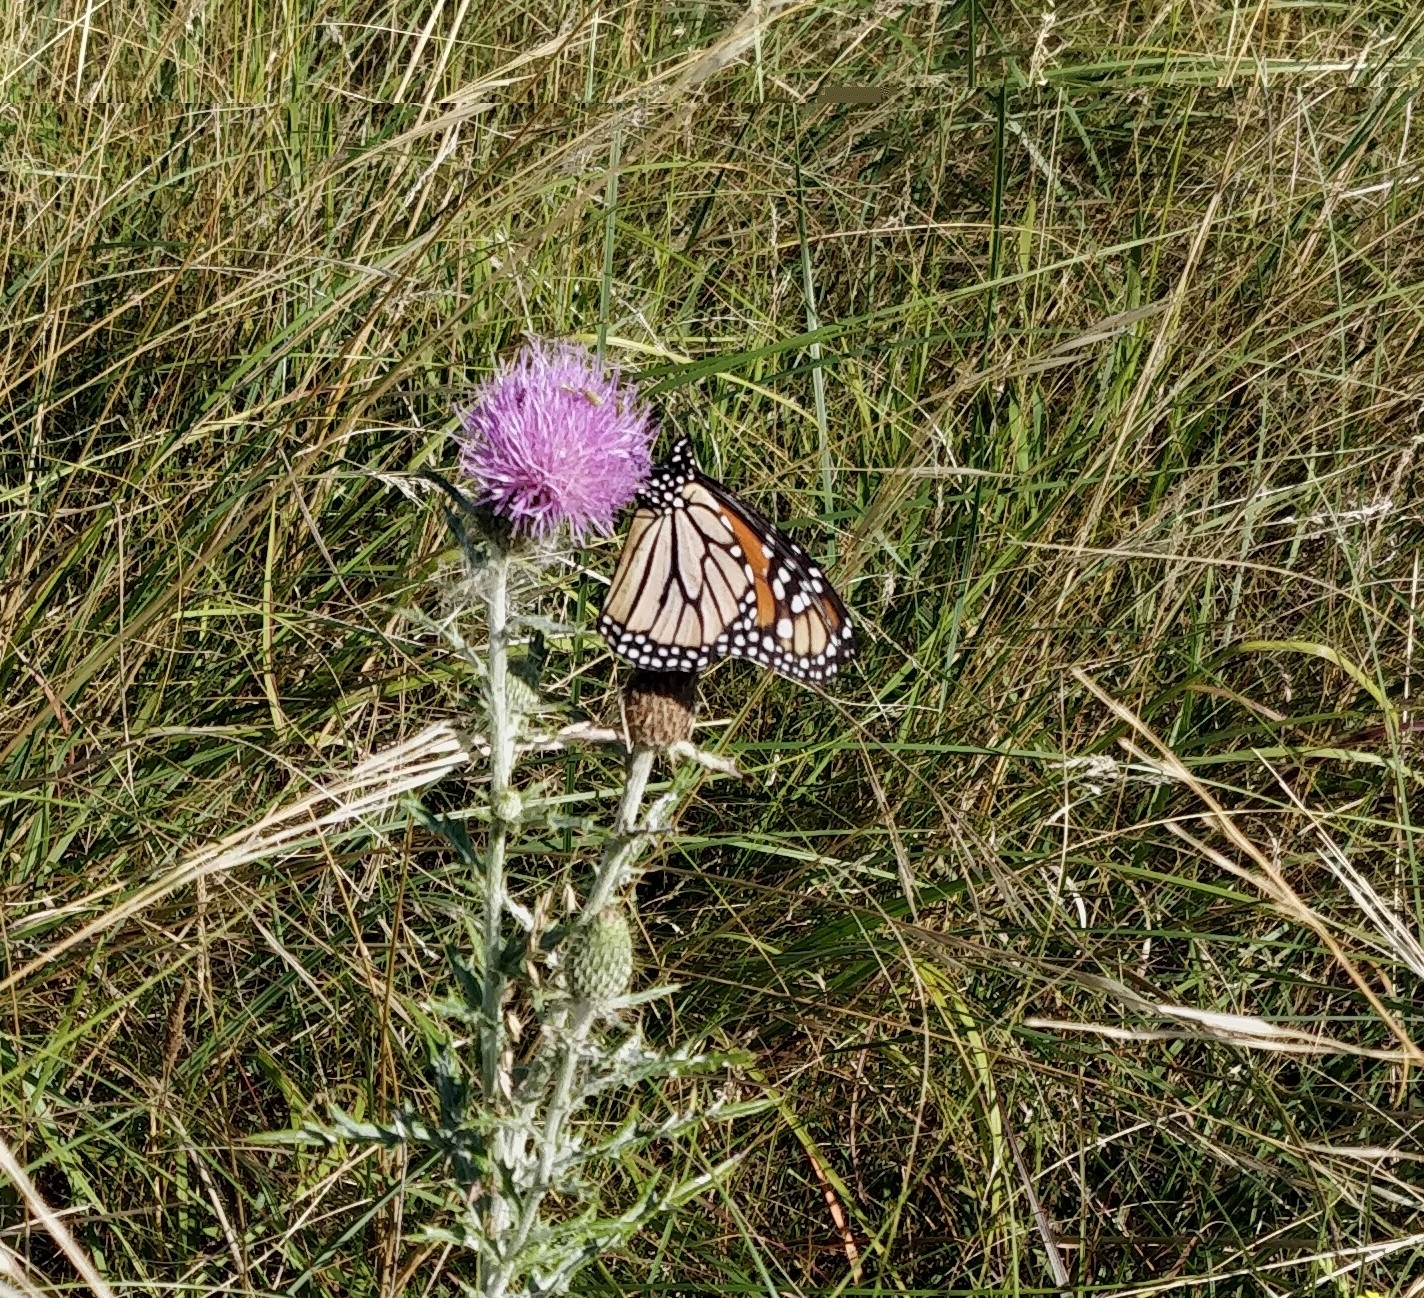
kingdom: Animalia
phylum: Arthropoda
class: Insecta
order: Lepidoptera
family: Nymphalidae
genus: Danaus
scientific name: Danaus plexippus
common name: Monarch
